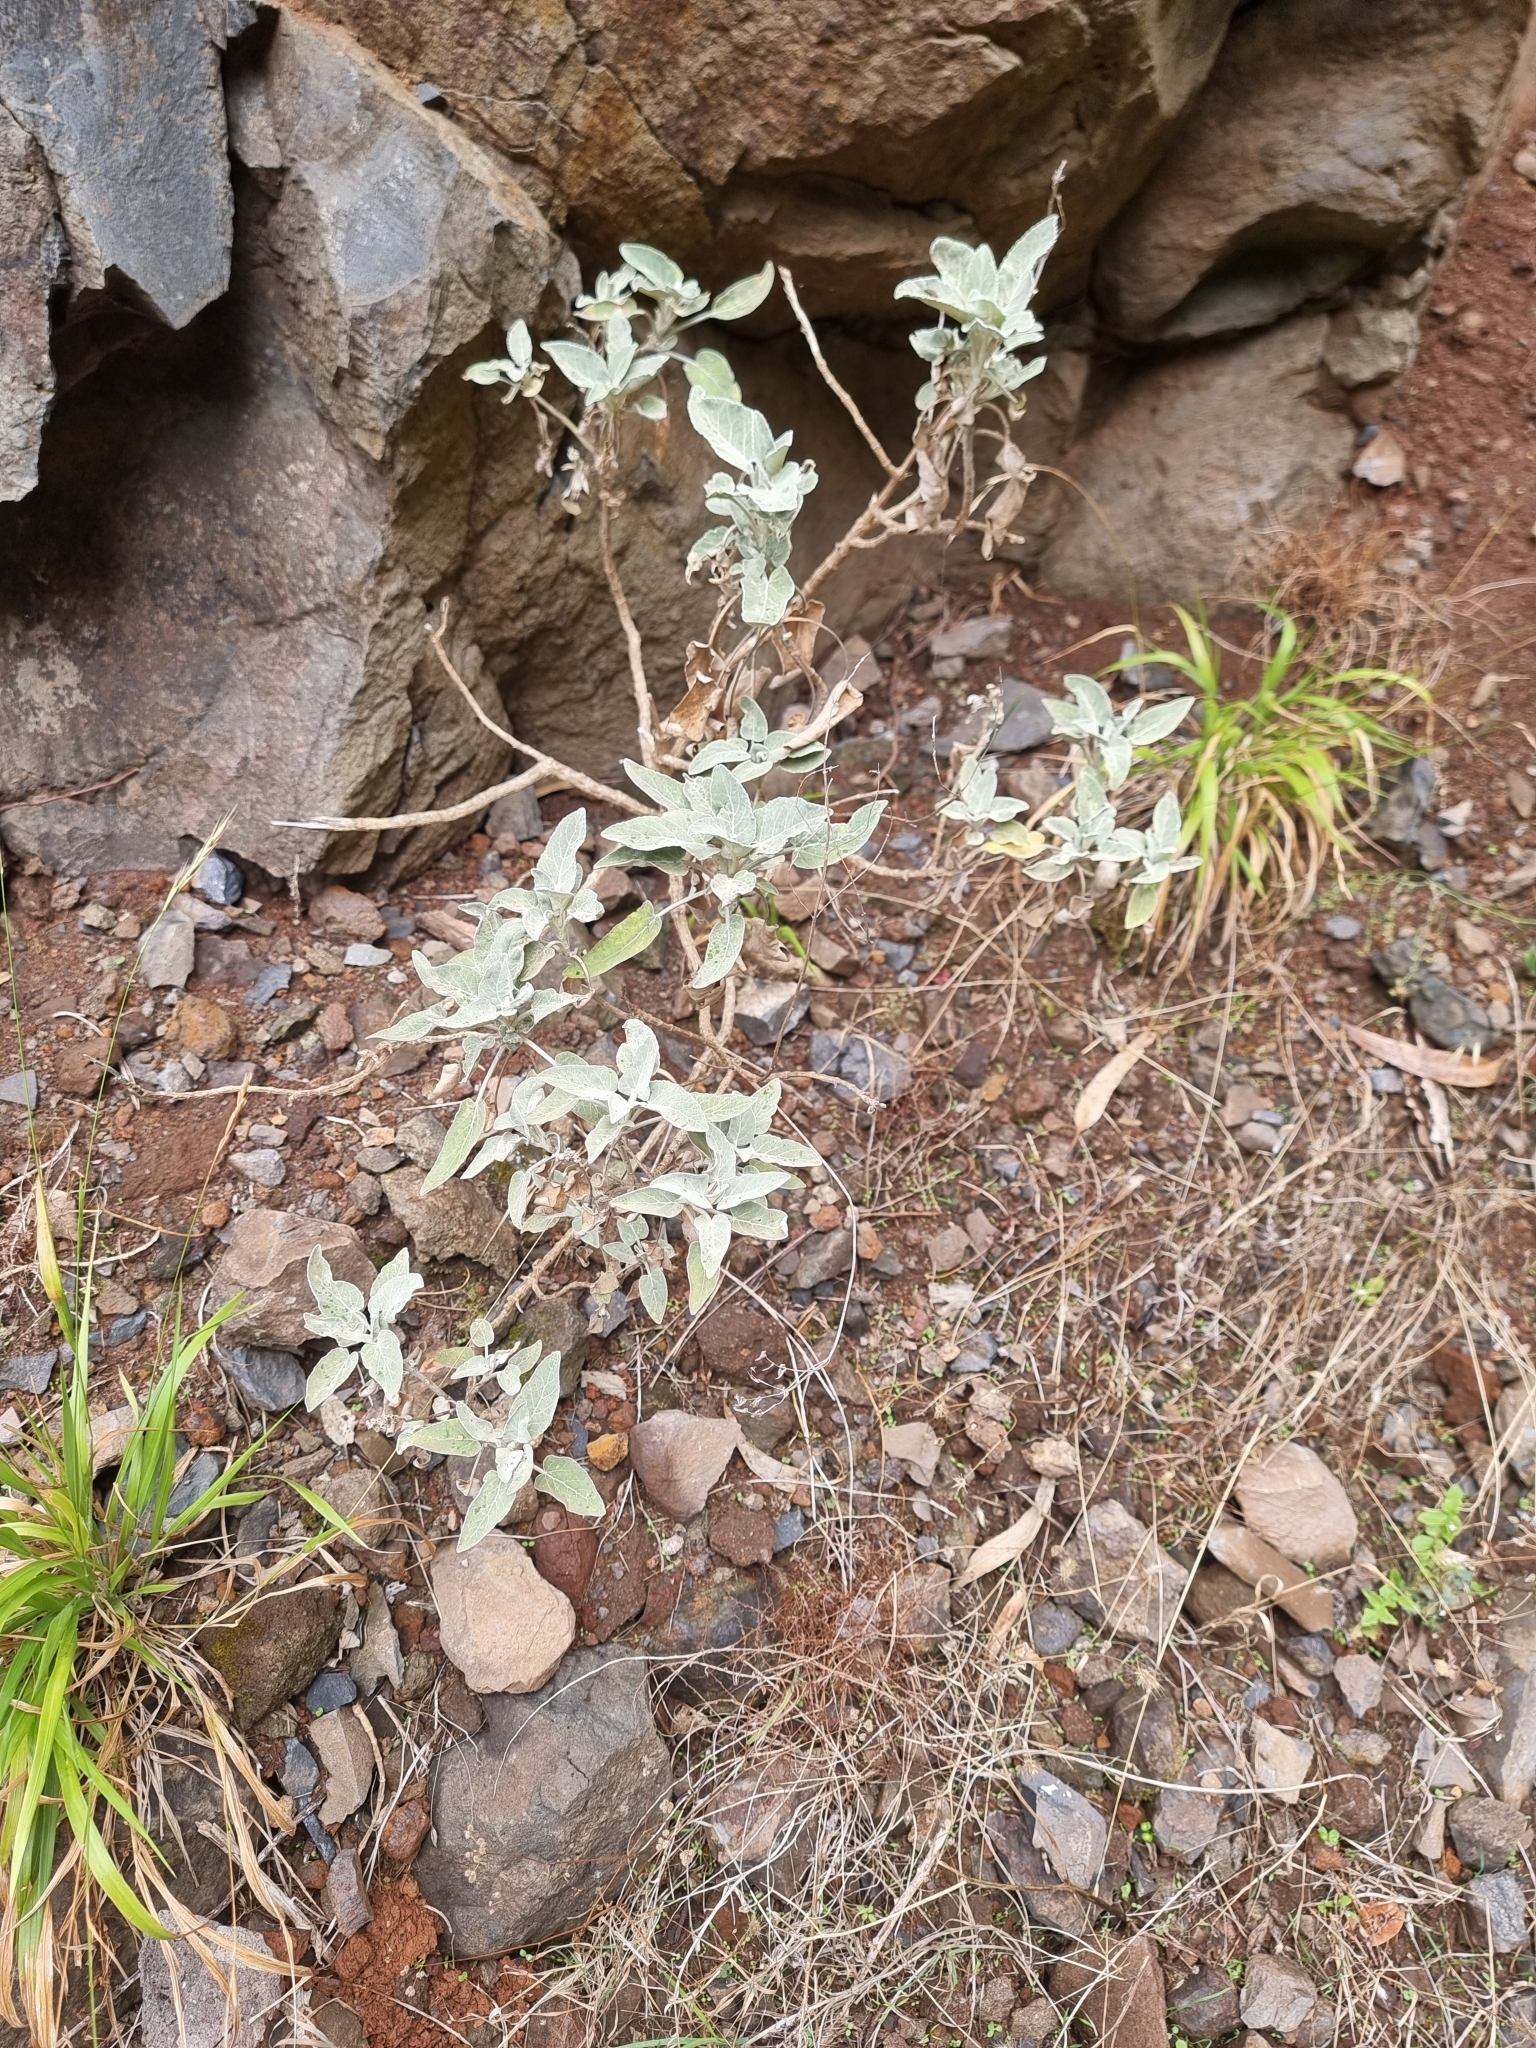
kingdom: Plantae
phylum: Tracheophyta
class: Magnoliopsida
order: Lamiales
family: Lamiaceae
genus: Sideritis
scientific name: Sideritis candicans
